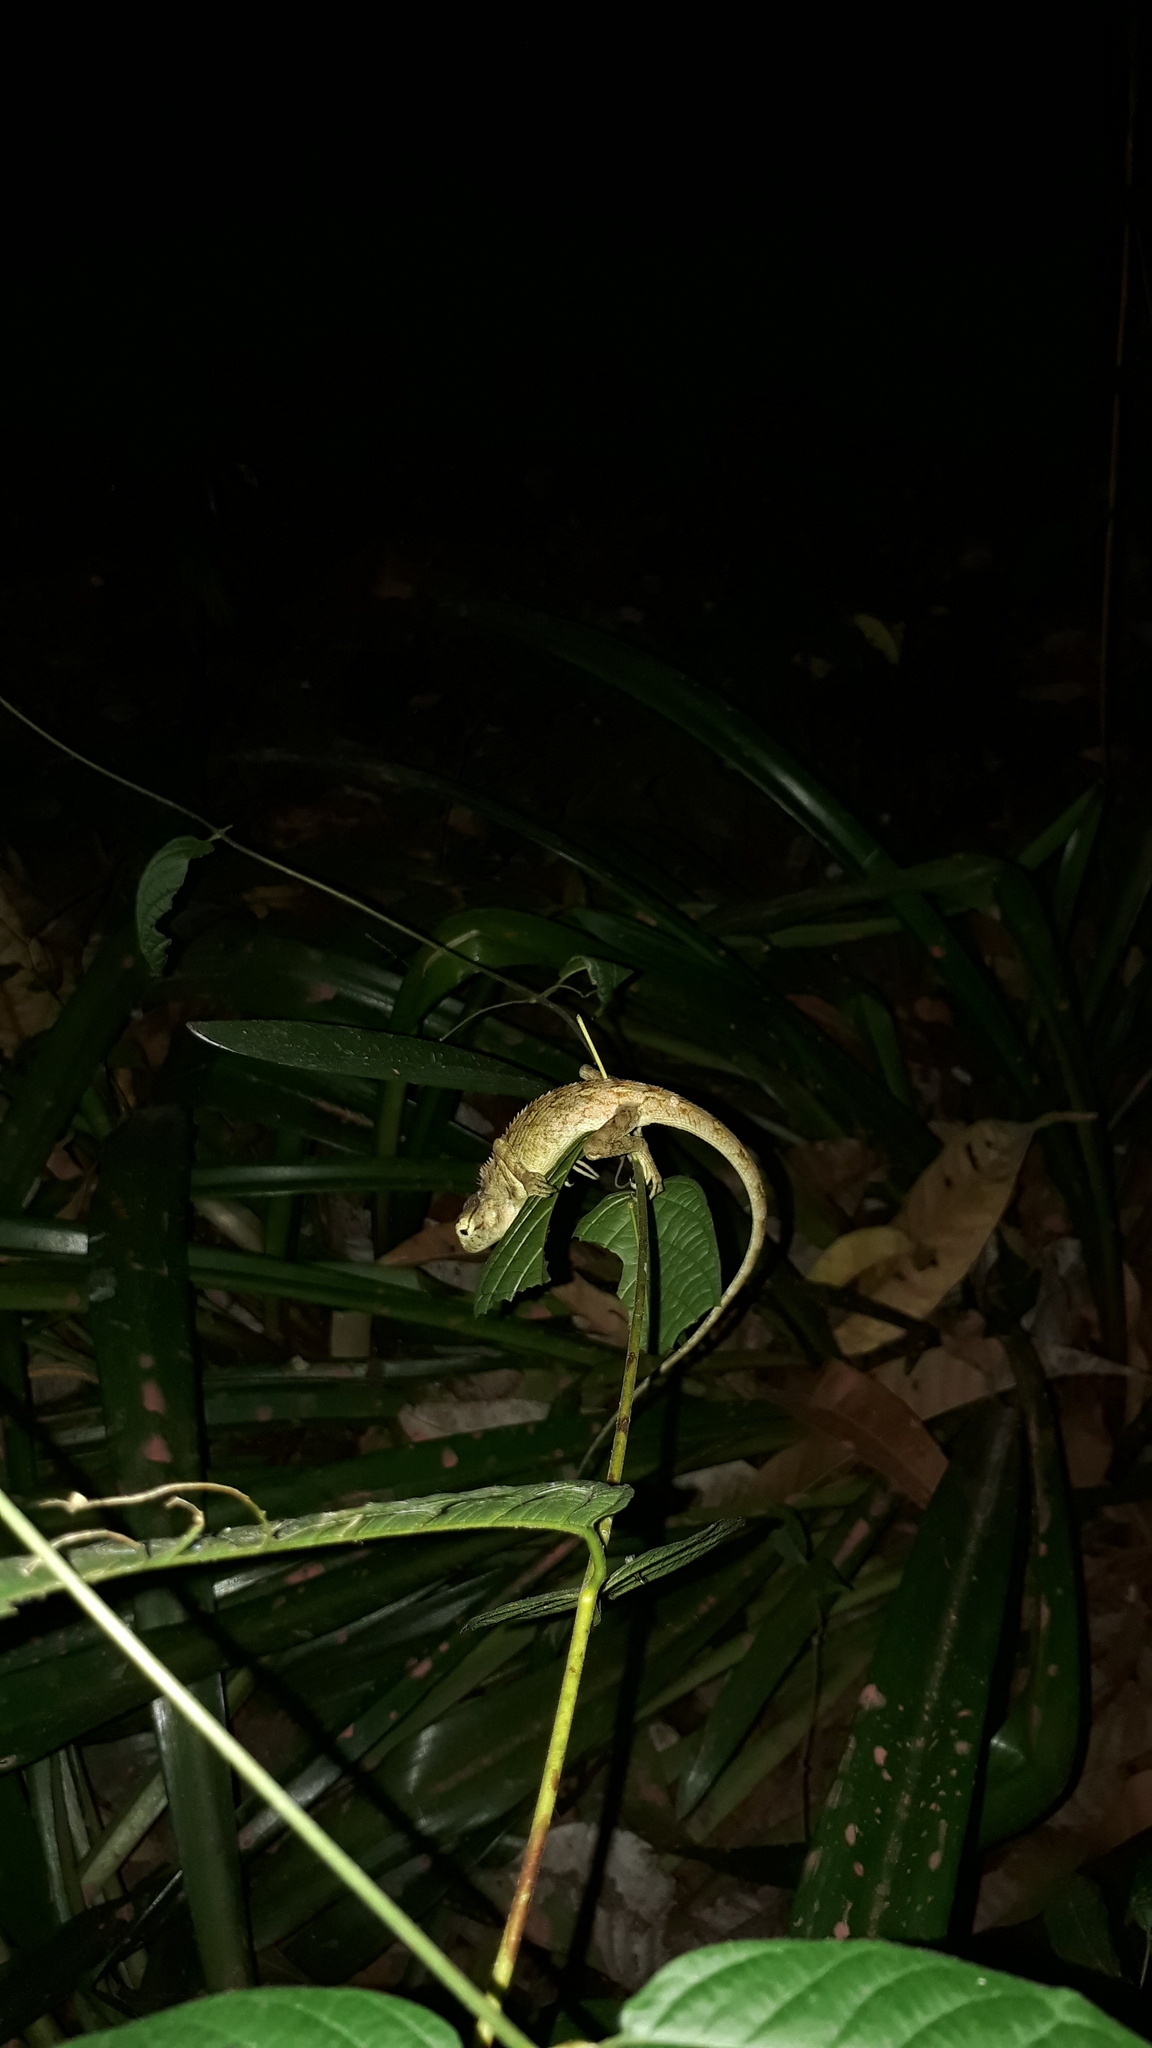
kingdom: Animalia
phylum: Chordata
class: Squamata
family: Agamidae
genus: Calotes
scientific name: Calotes versicolor
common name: Oriental garden lizard
